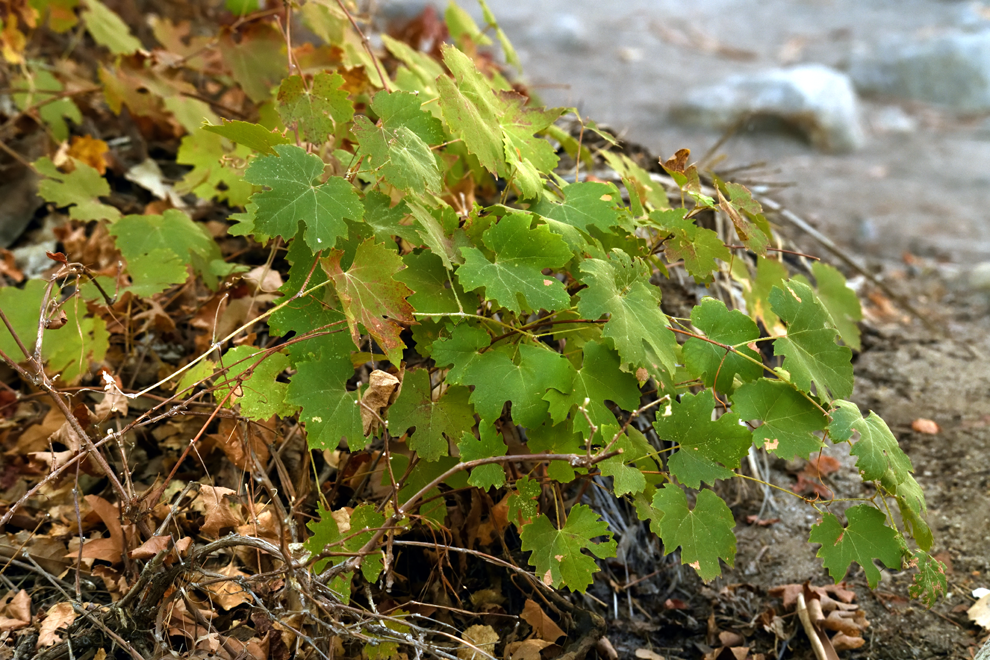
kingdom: Plantae
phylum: Tracheophyta
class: Magnoliopsida
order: Vitales
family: Vitaceae
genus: Vitis
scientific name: Vitis girdiana
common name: Desert wild grape
